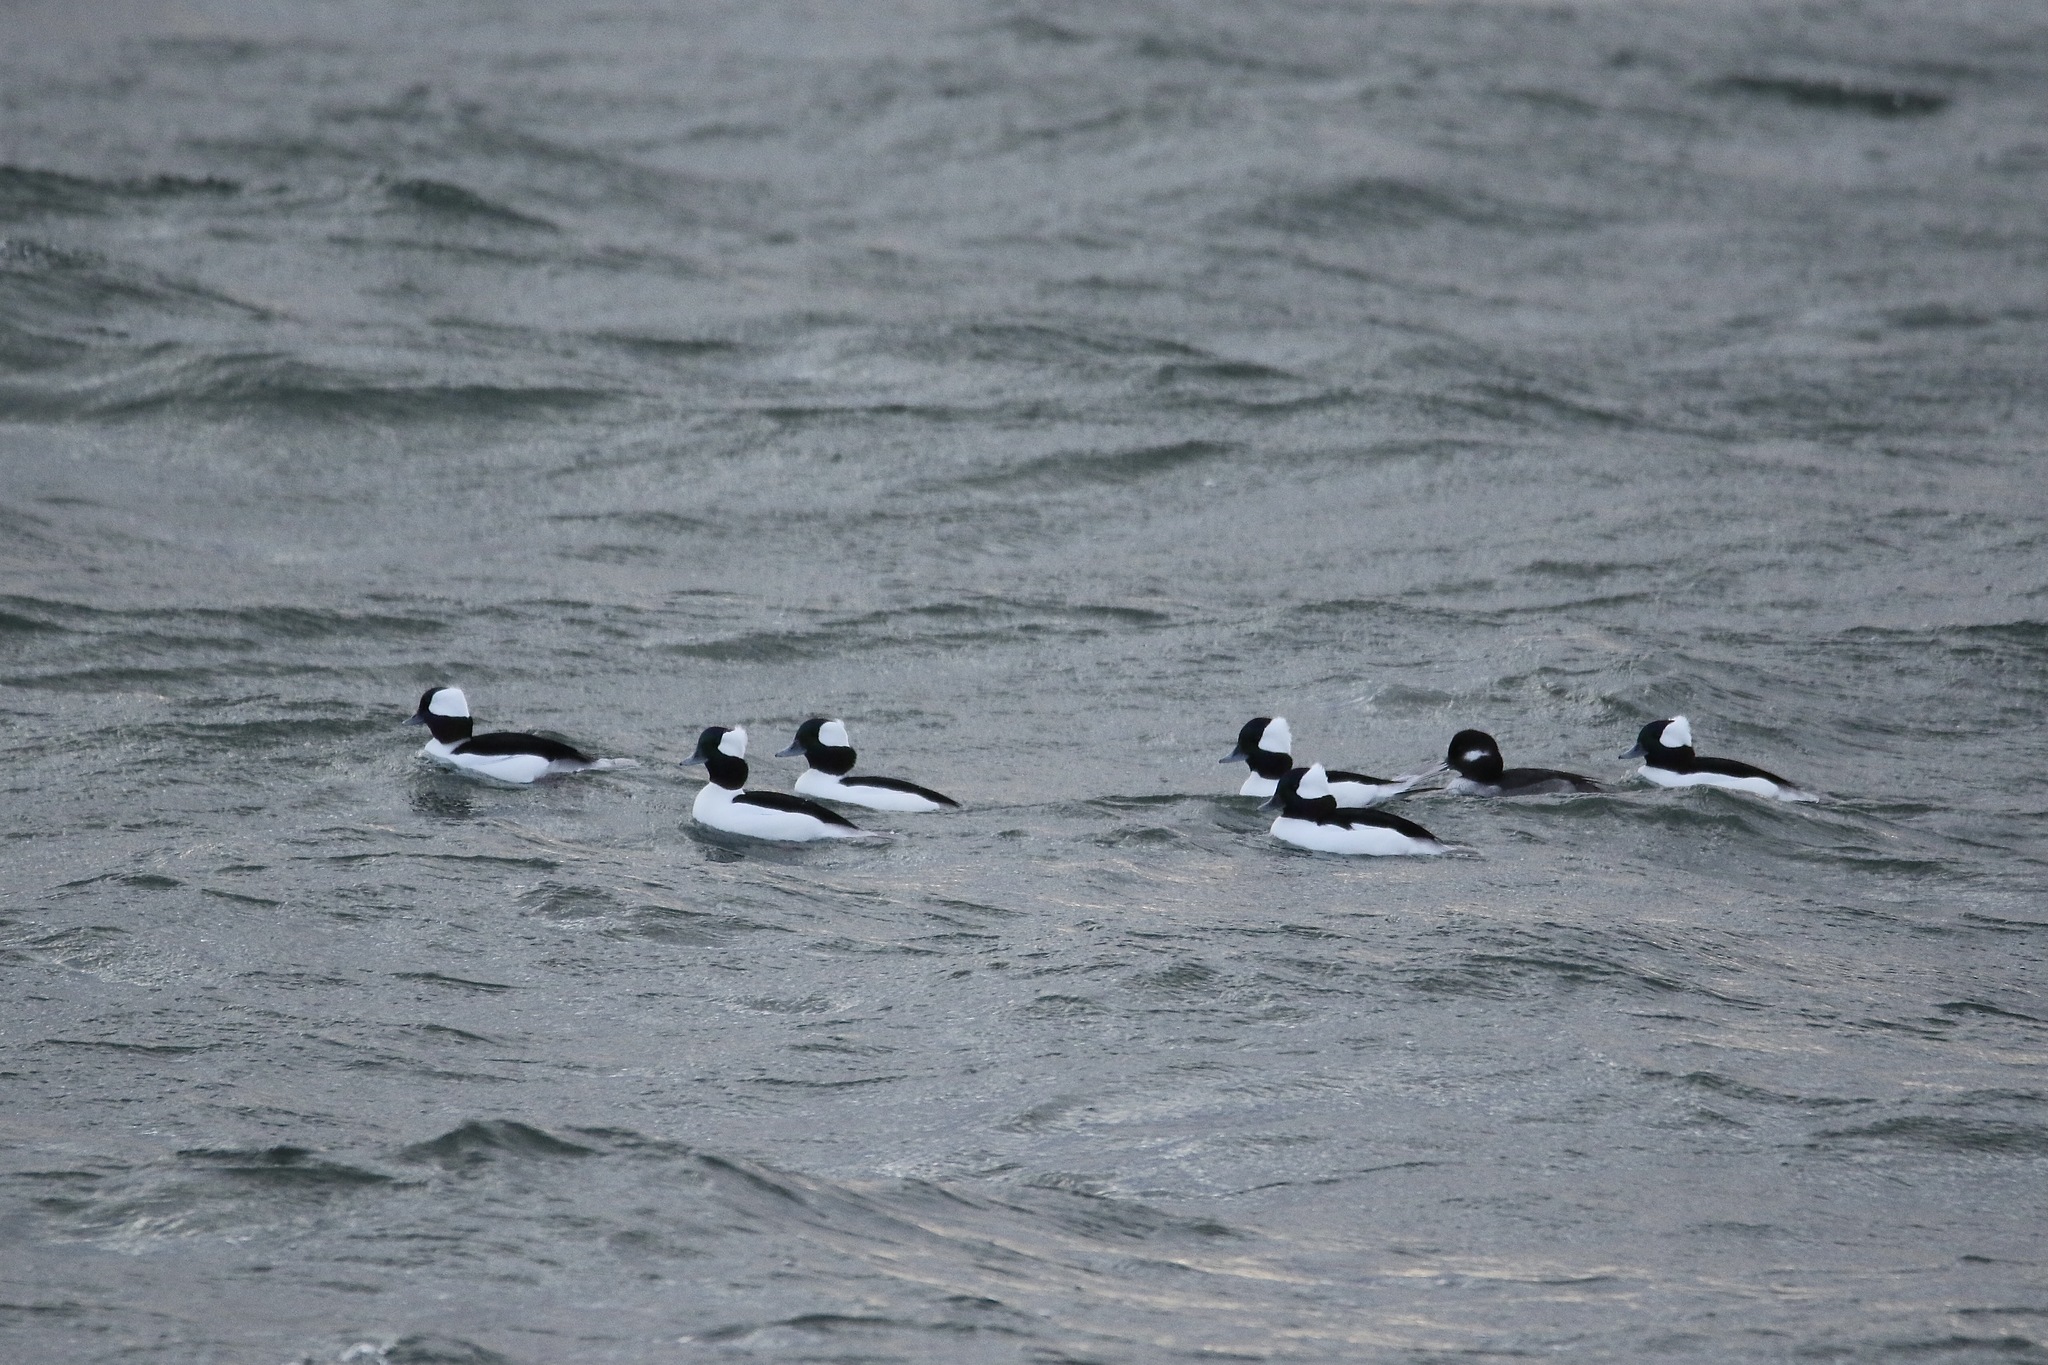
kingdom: Animalia
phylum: Chordata
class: Aves
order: Anseriformes
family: Anatidae
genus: Bucephala
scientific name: Bucephala albeola
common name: Bufflehead
